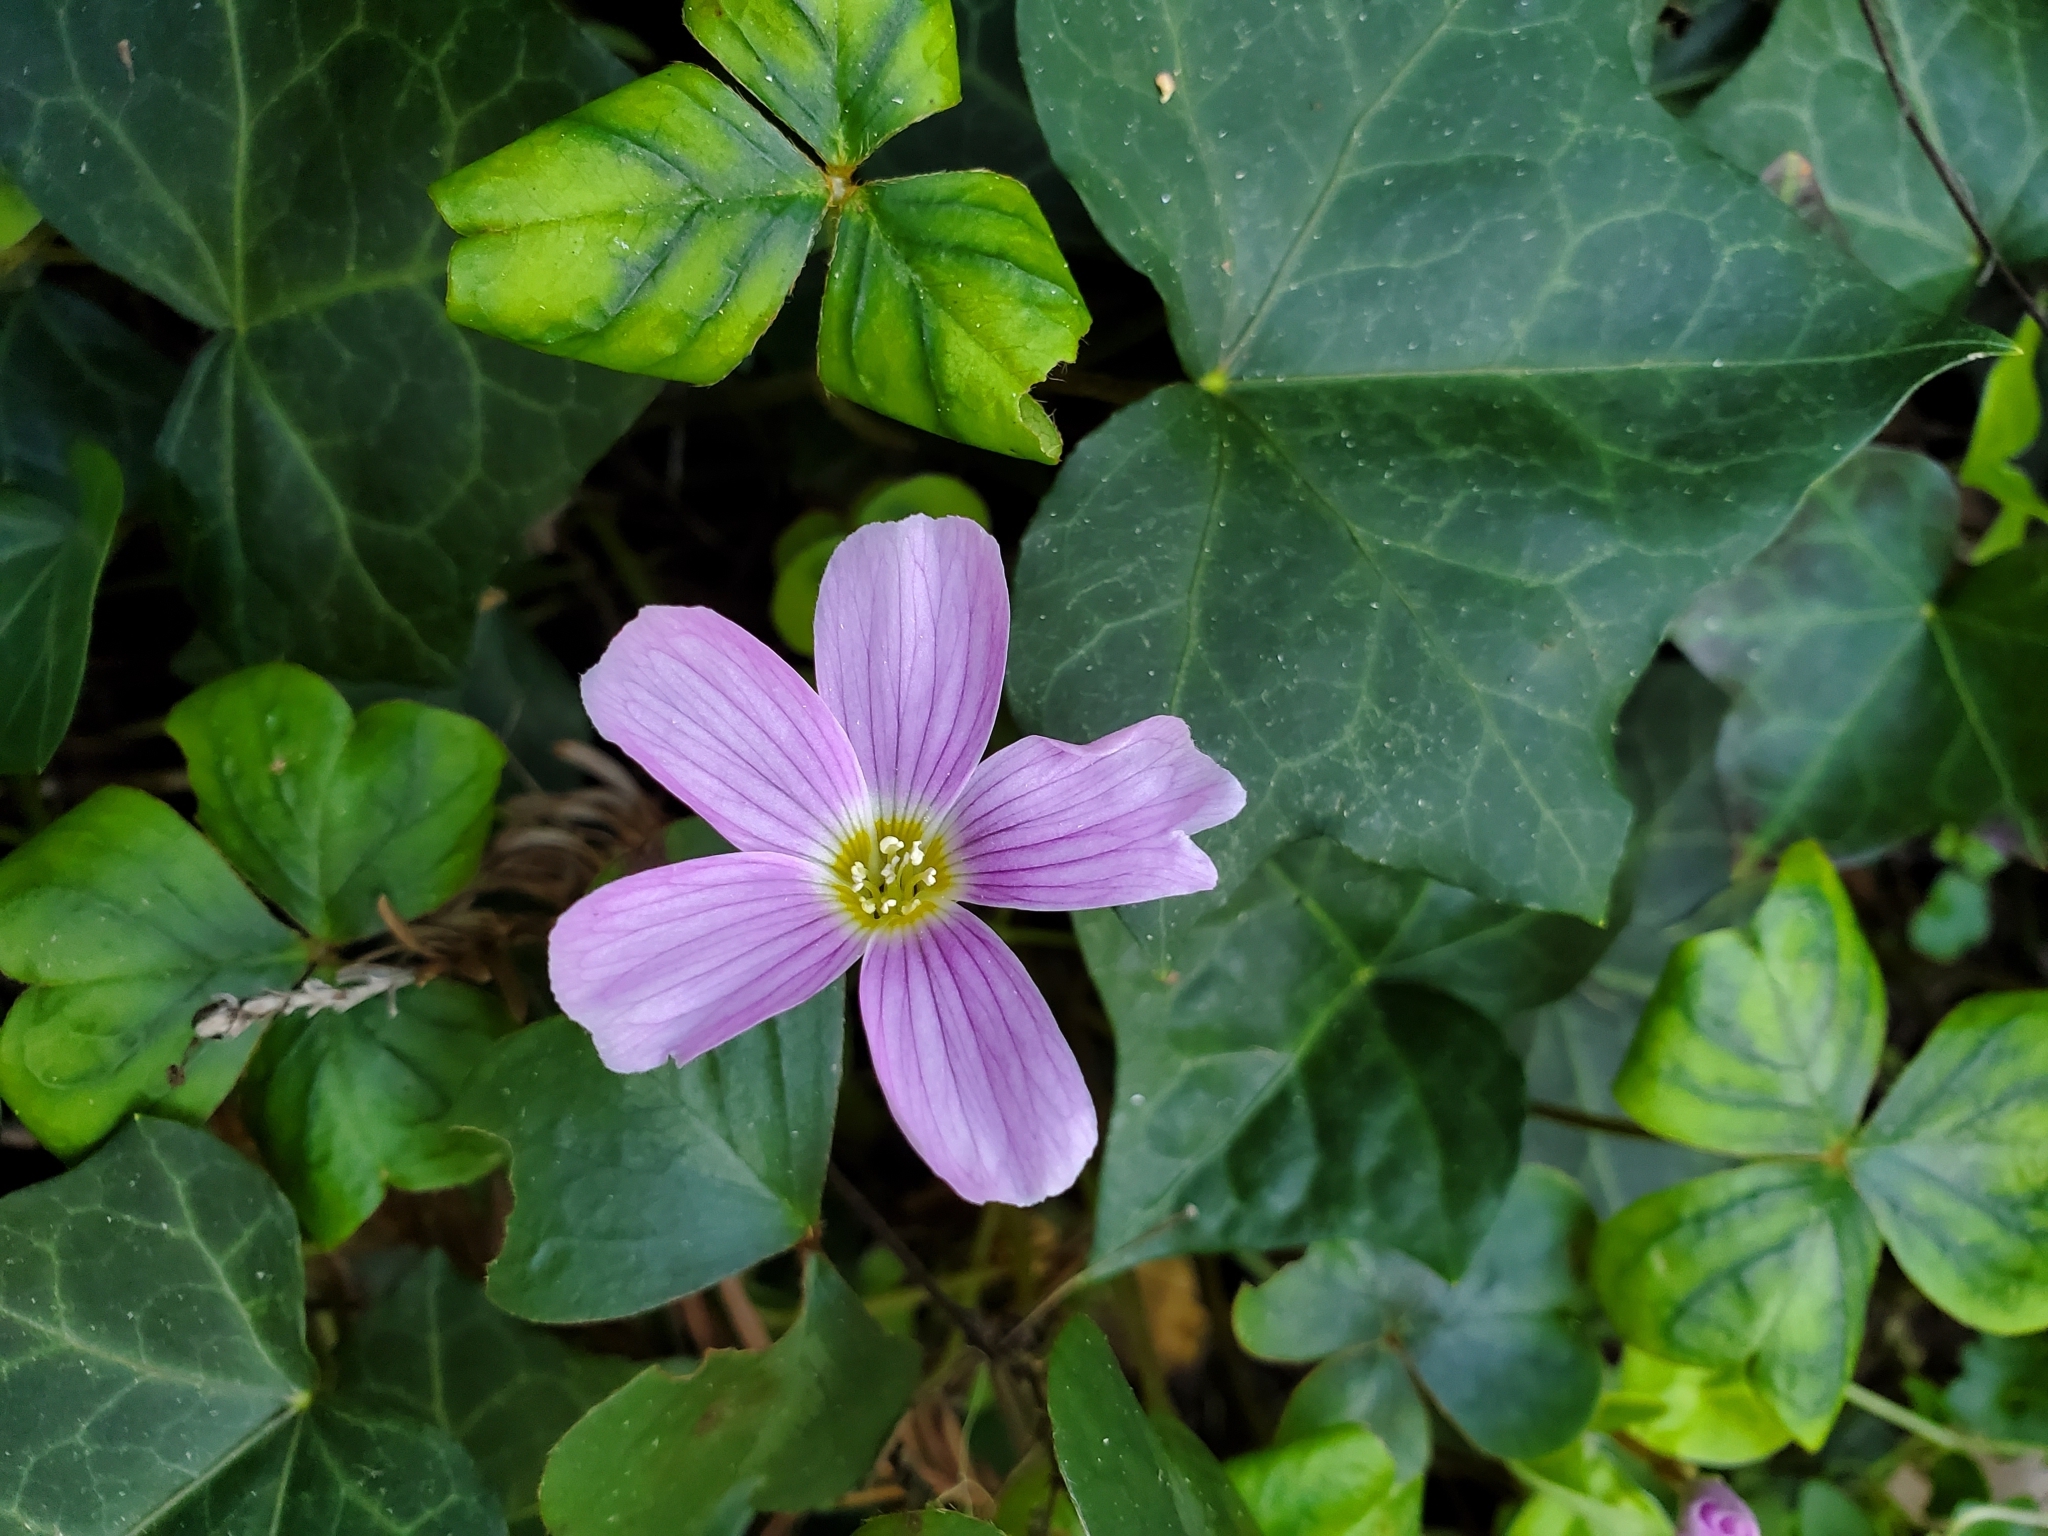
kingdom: Plantae
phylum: Tracheophyta
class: Magnoliopsida
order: Oxalidales
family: Oxalidaceae
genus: Oxalis
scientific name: Oxalis oregana
